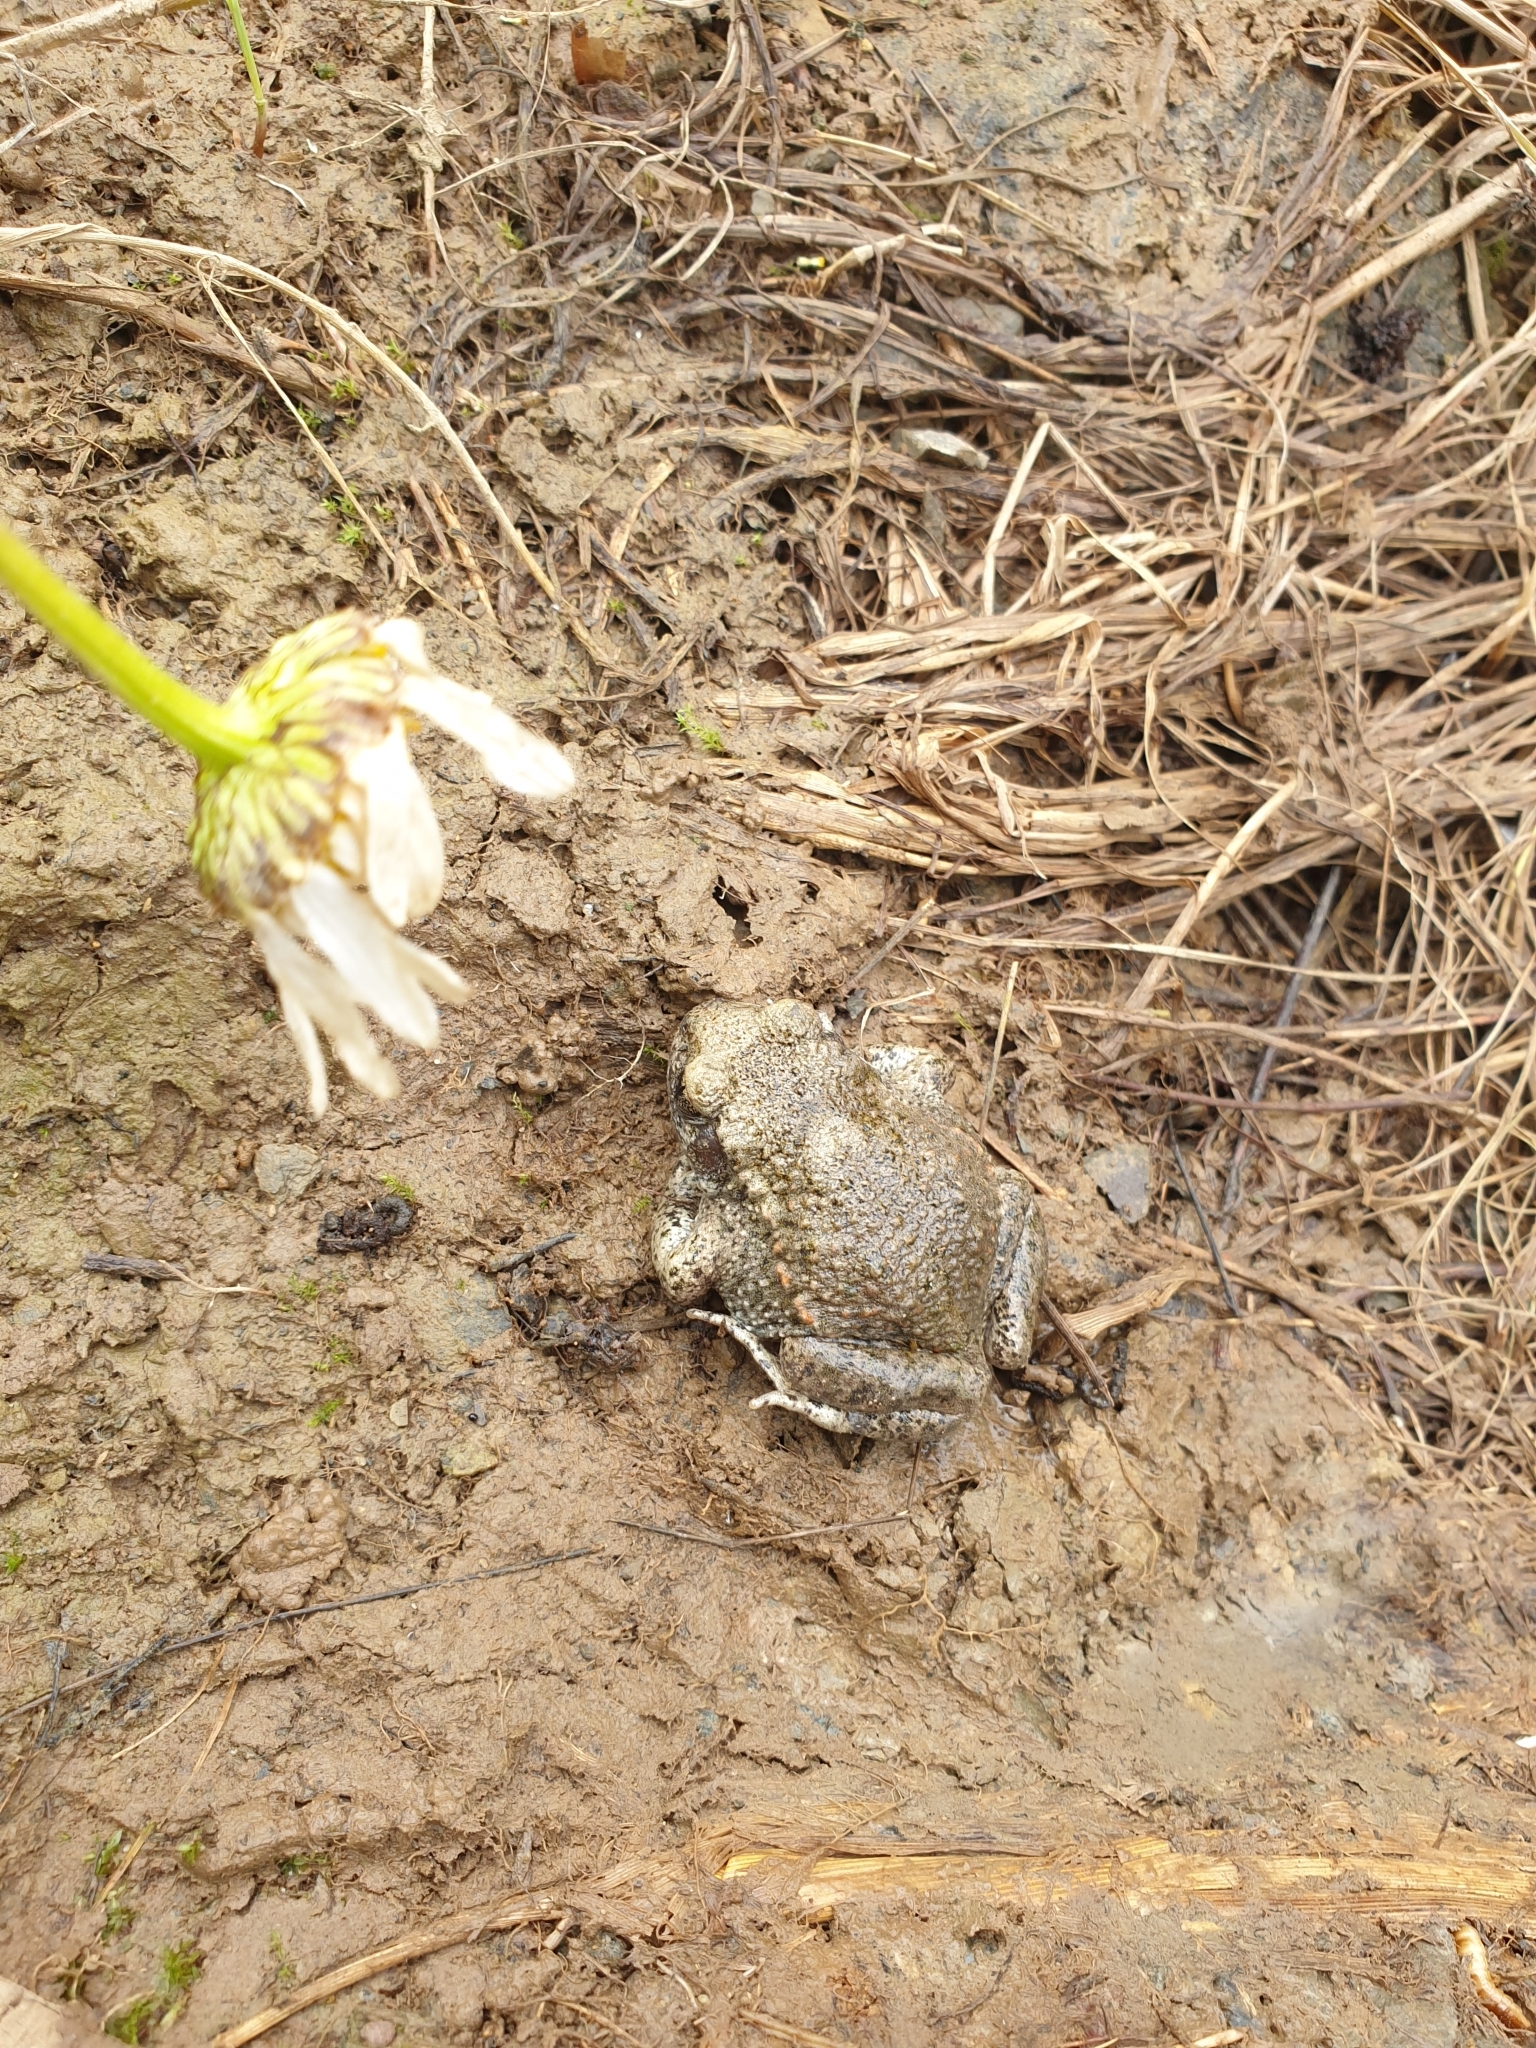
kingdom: Animalia
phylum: Chordata
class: Amphibia
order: Anura
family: Alytidae
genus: Alytes
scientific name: Alytes obstetricans
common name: Midwife toad
